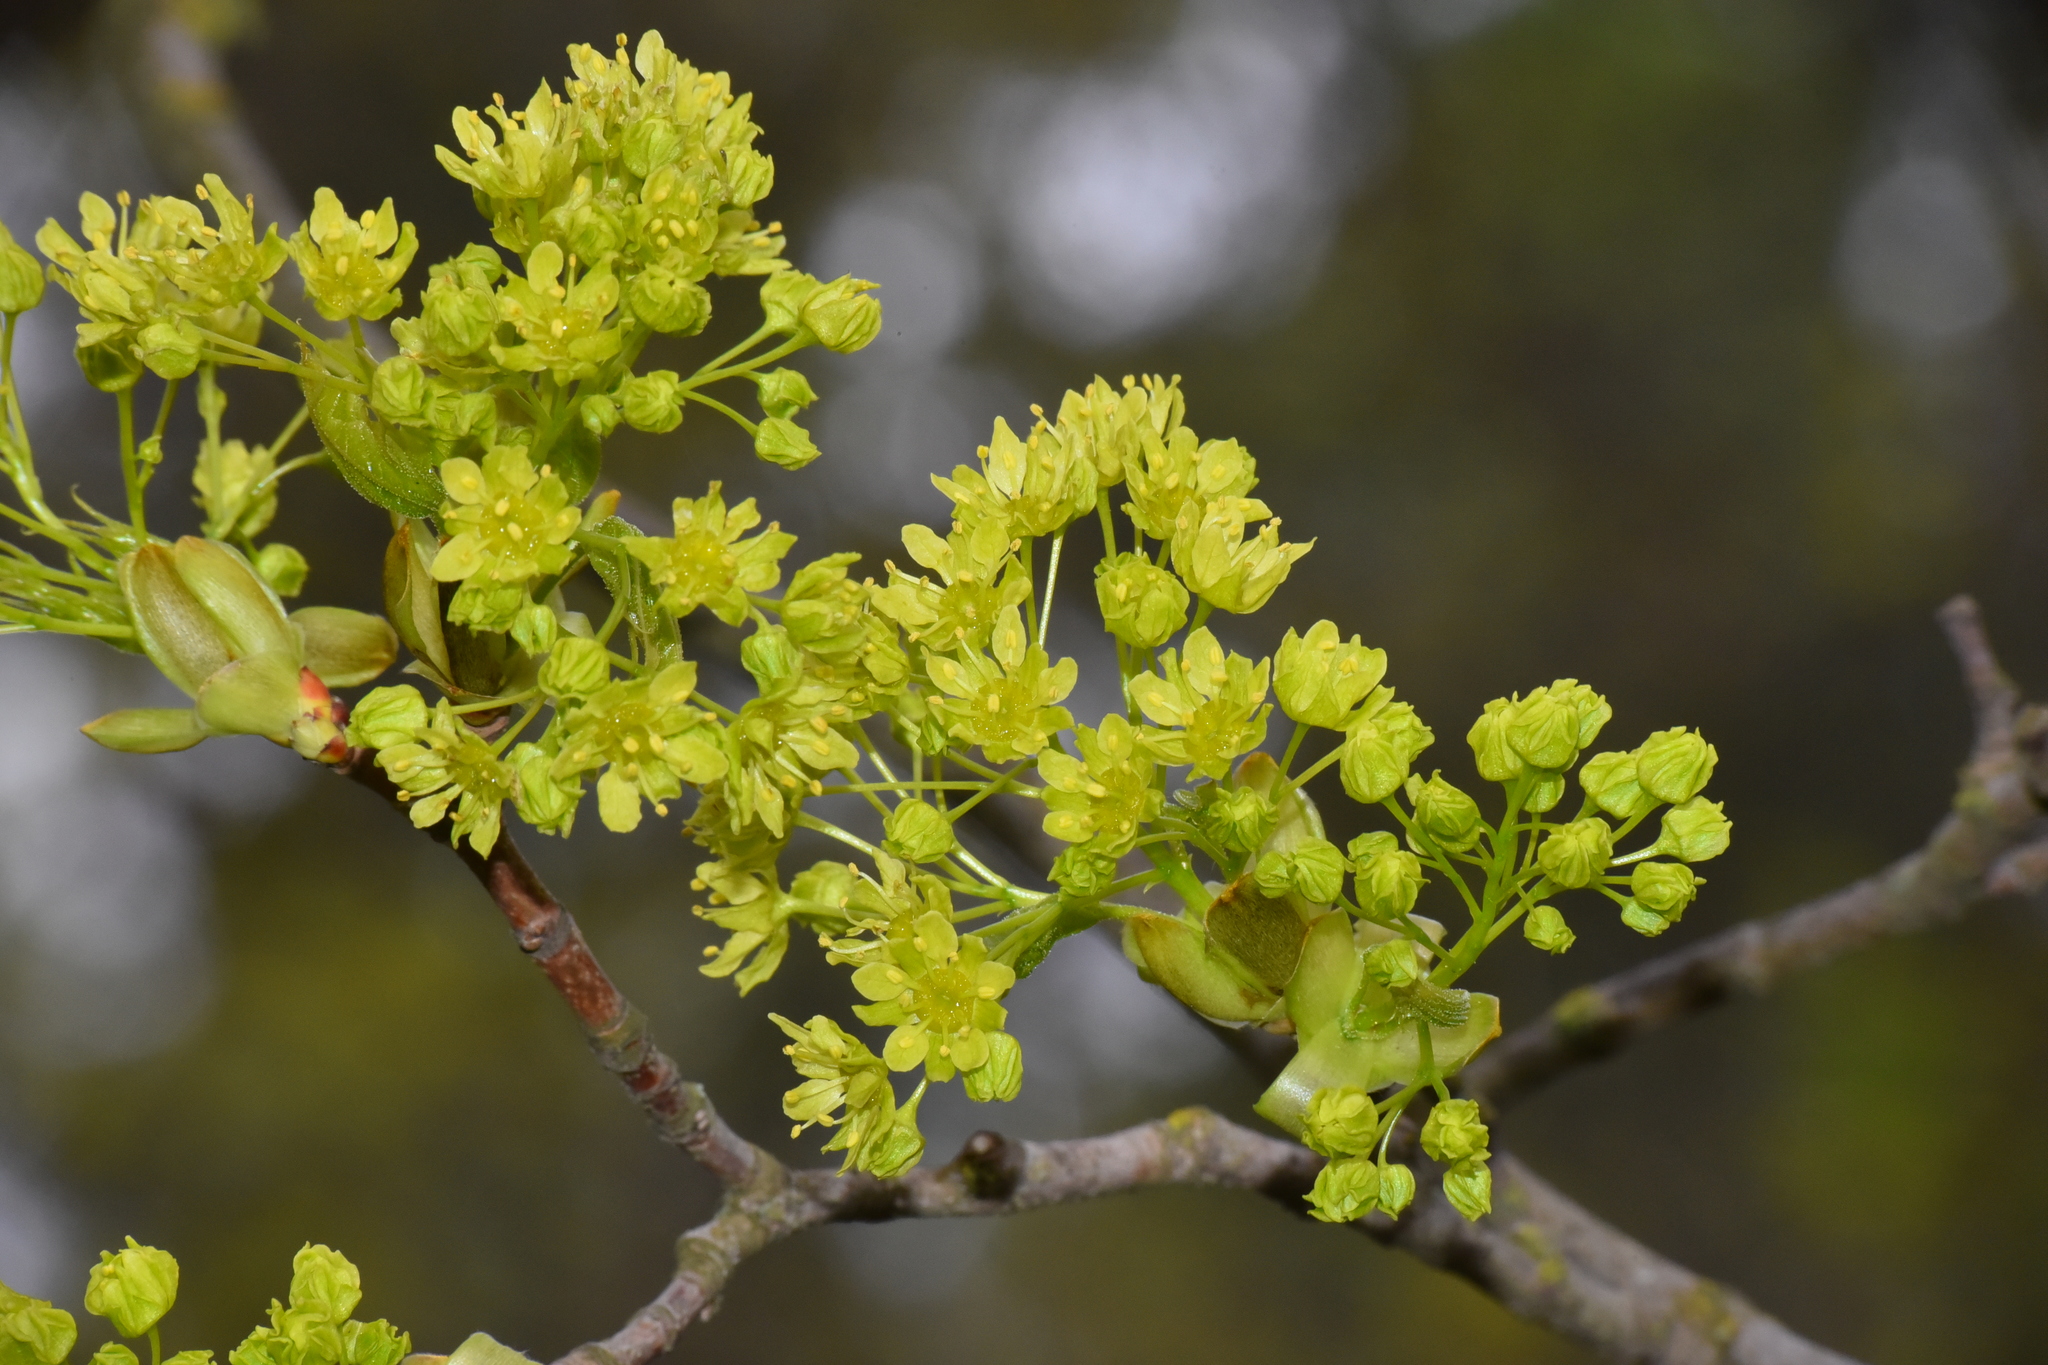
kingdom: Plantae
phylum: Tracheophyta
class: Magnoliopsida
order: Sapindales
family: Sapindaceae
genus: Acer
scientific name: Acer platanoides
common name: Norway maple
